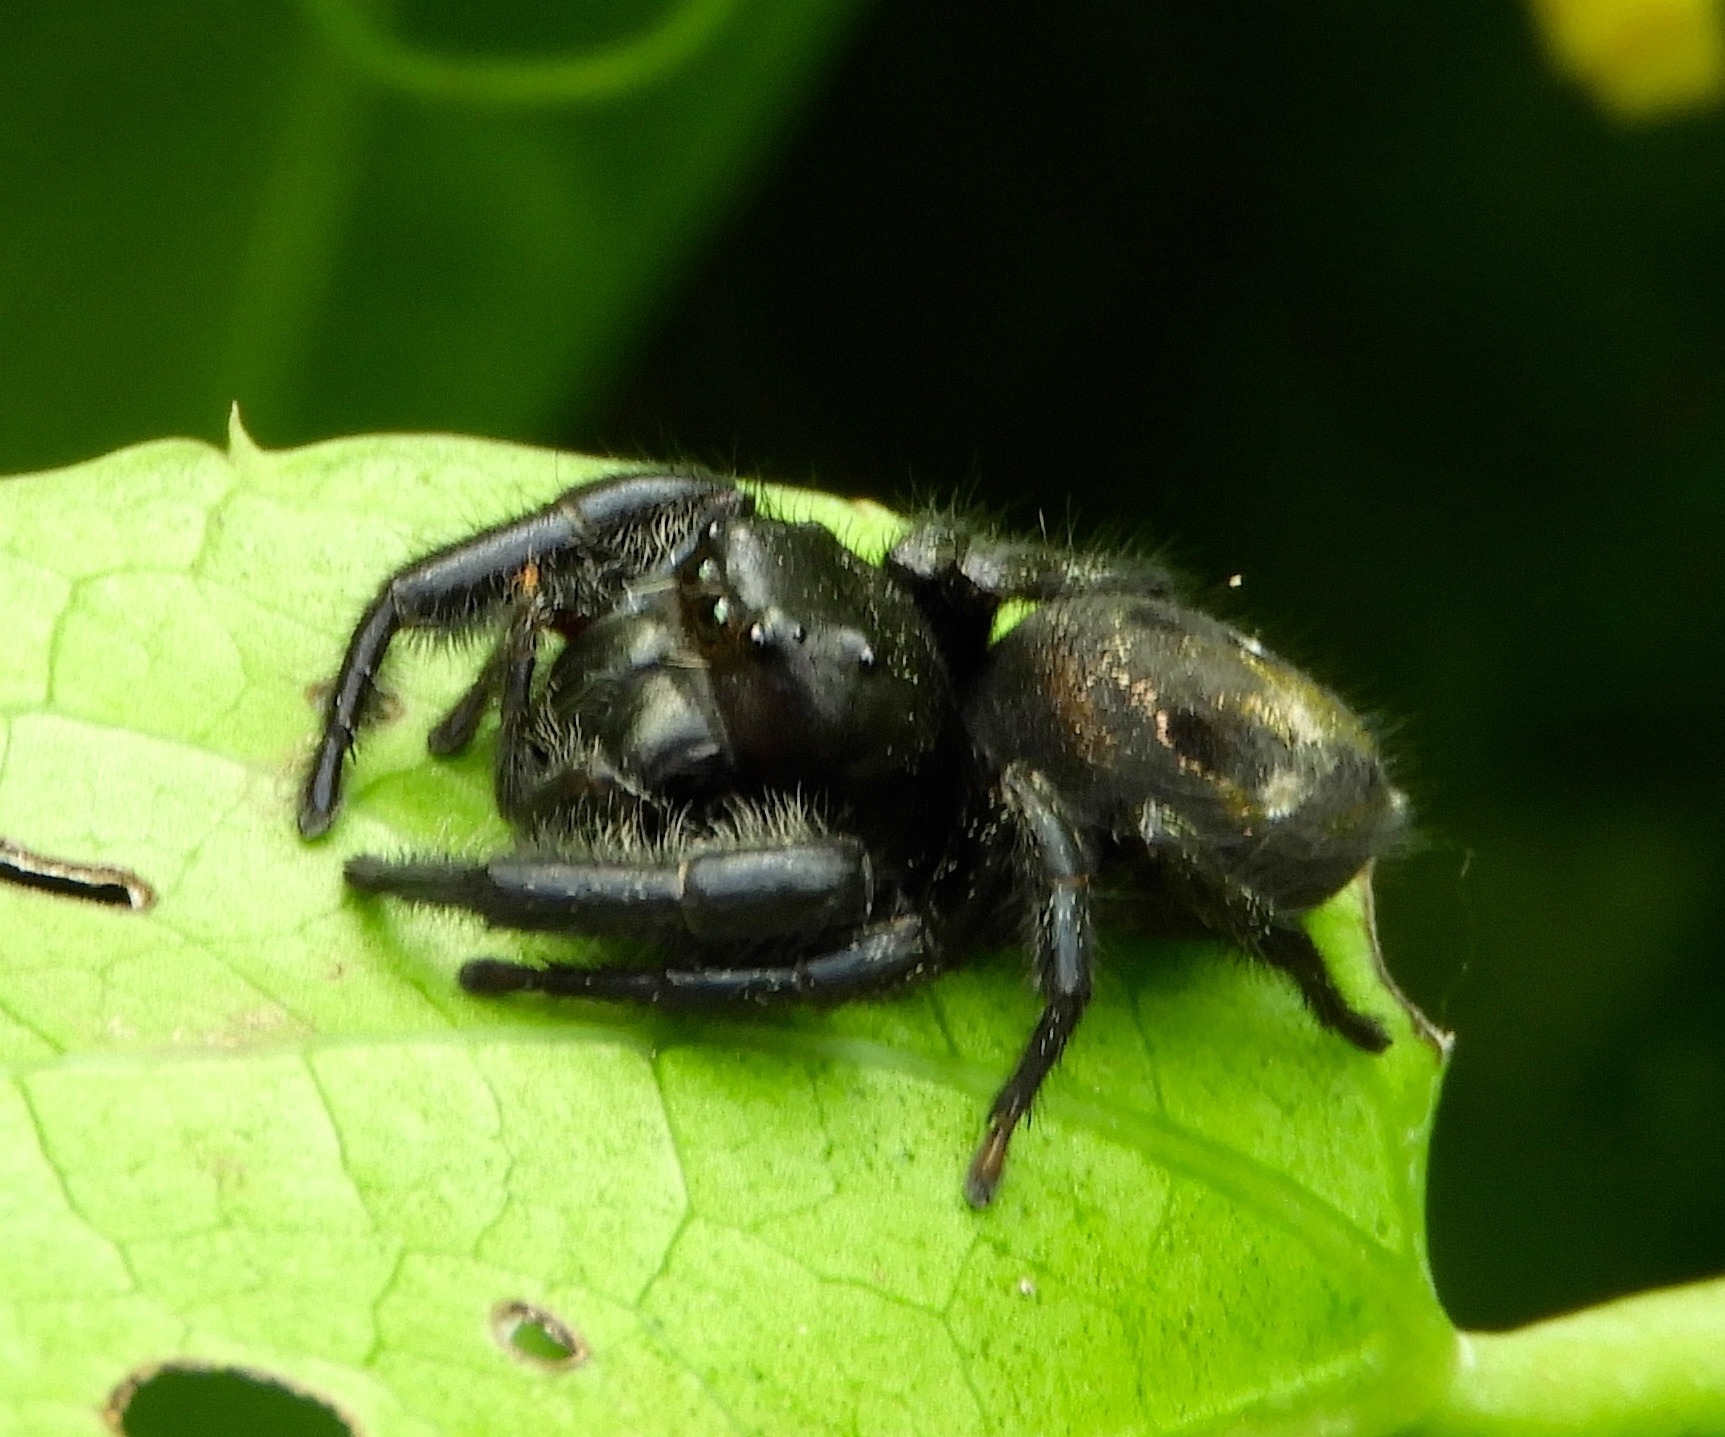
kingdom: Animalia
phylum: Arthropoda
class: Arachnida
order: Araneae
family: Salticidae
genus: Paraphidippus
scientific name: Paraphidippus
